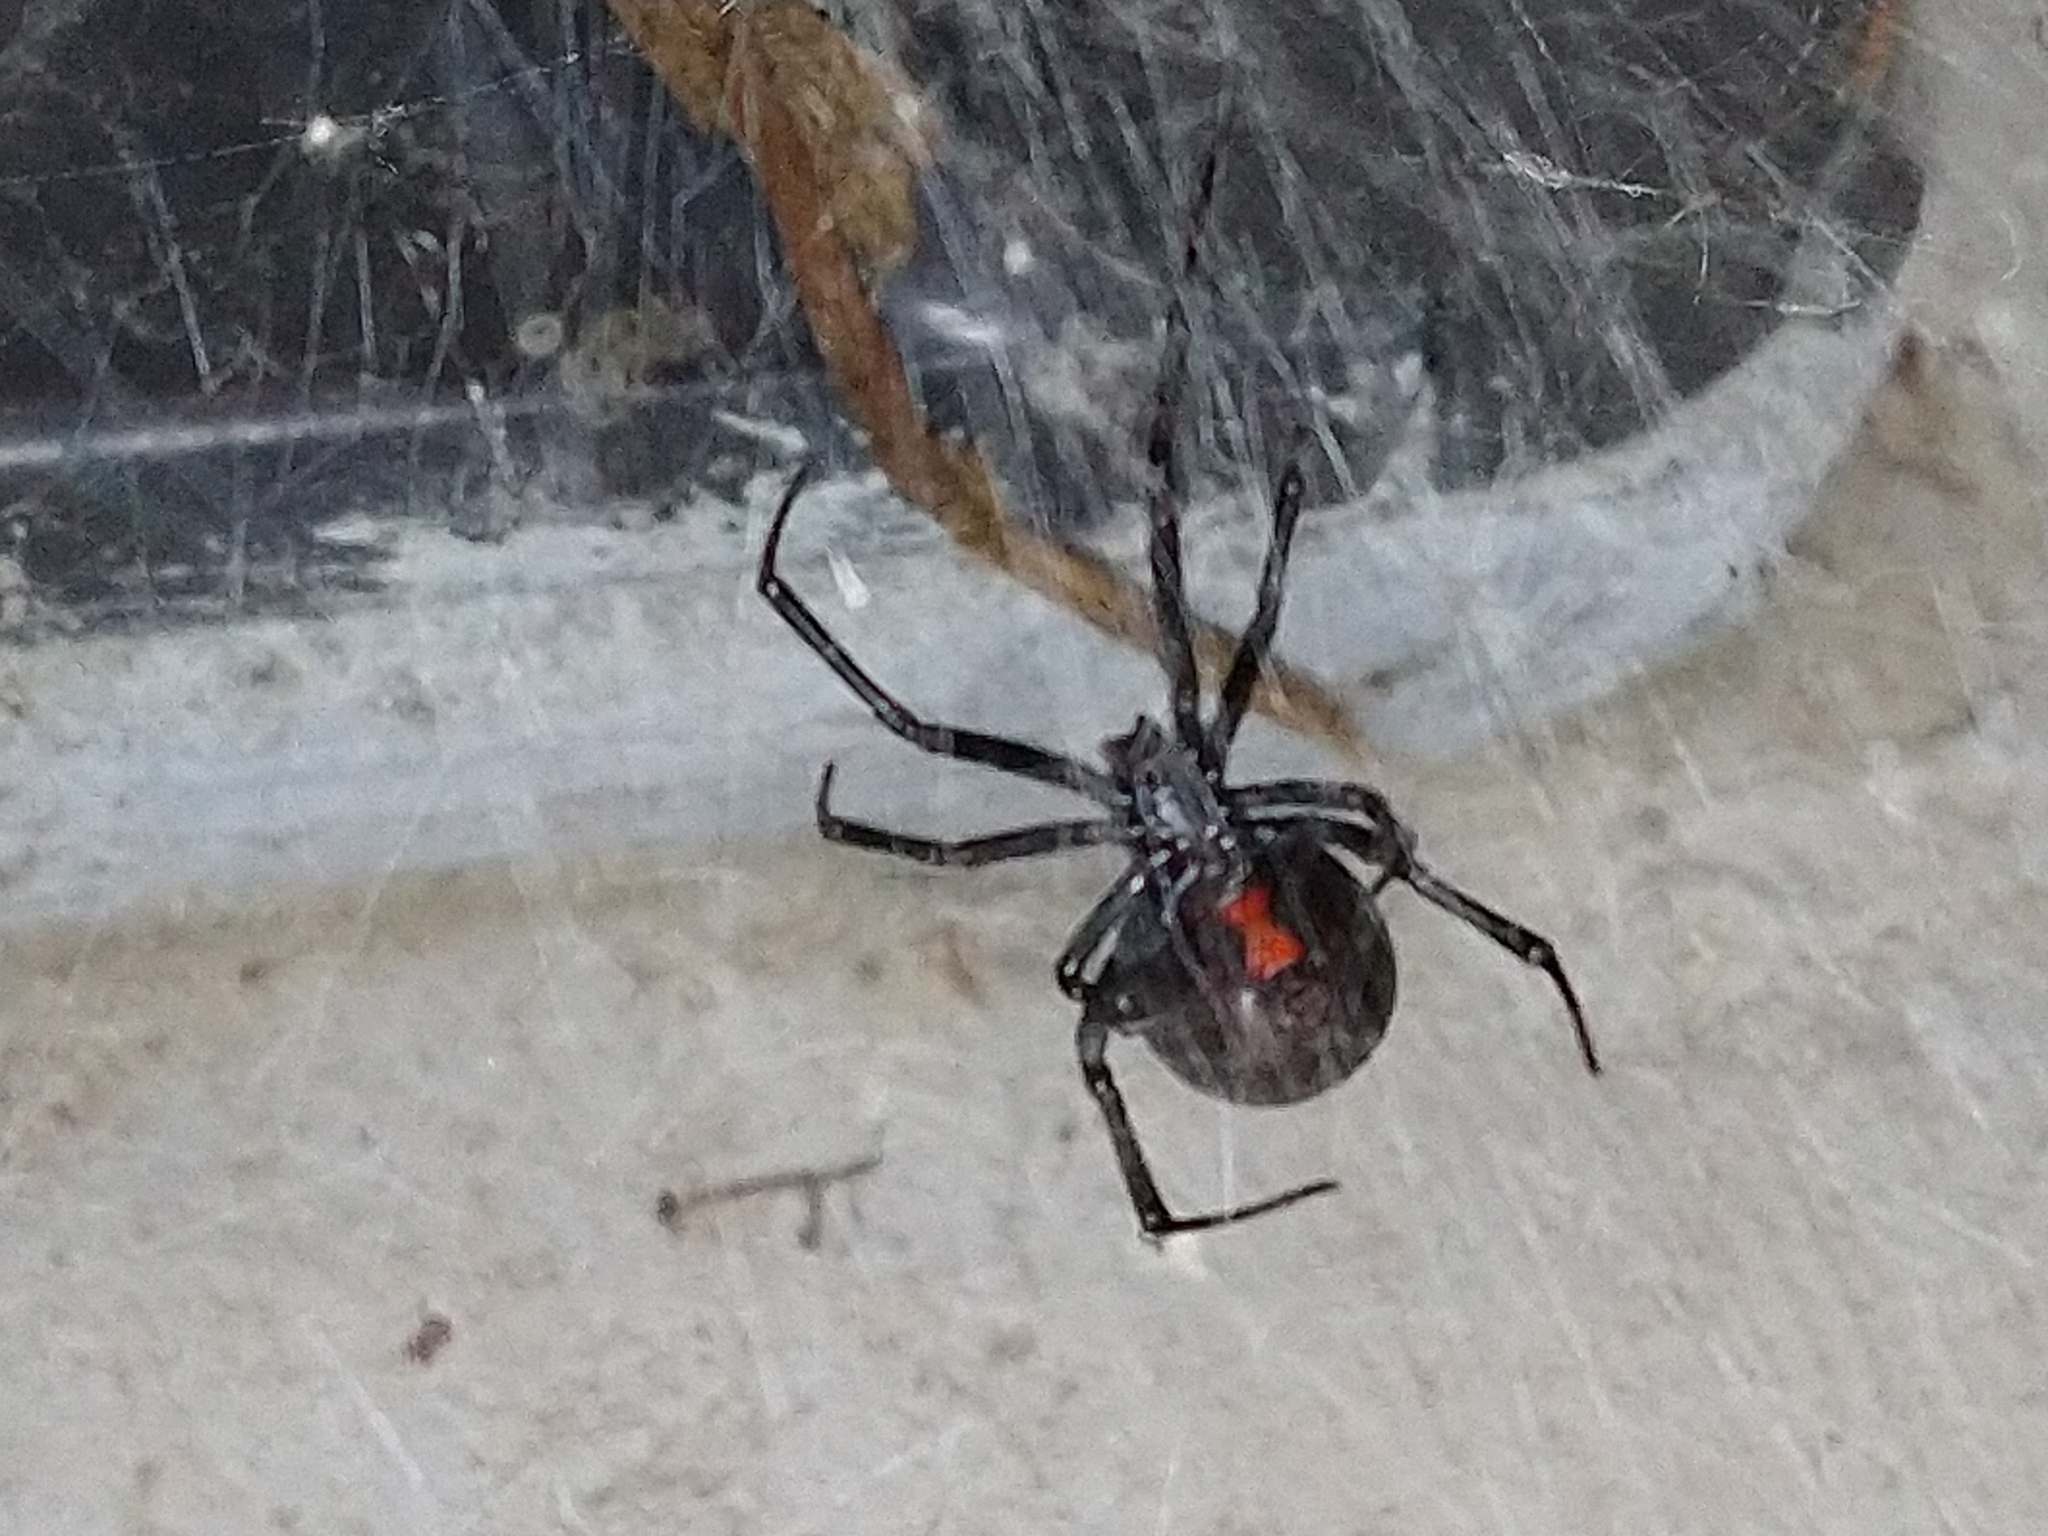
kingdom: Animalia
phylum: Arthropoda
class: Arachnida
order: Araneae
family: Theridiidae
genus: Latrodectus
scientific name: Latrodectus hesperus
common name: Western black widow
